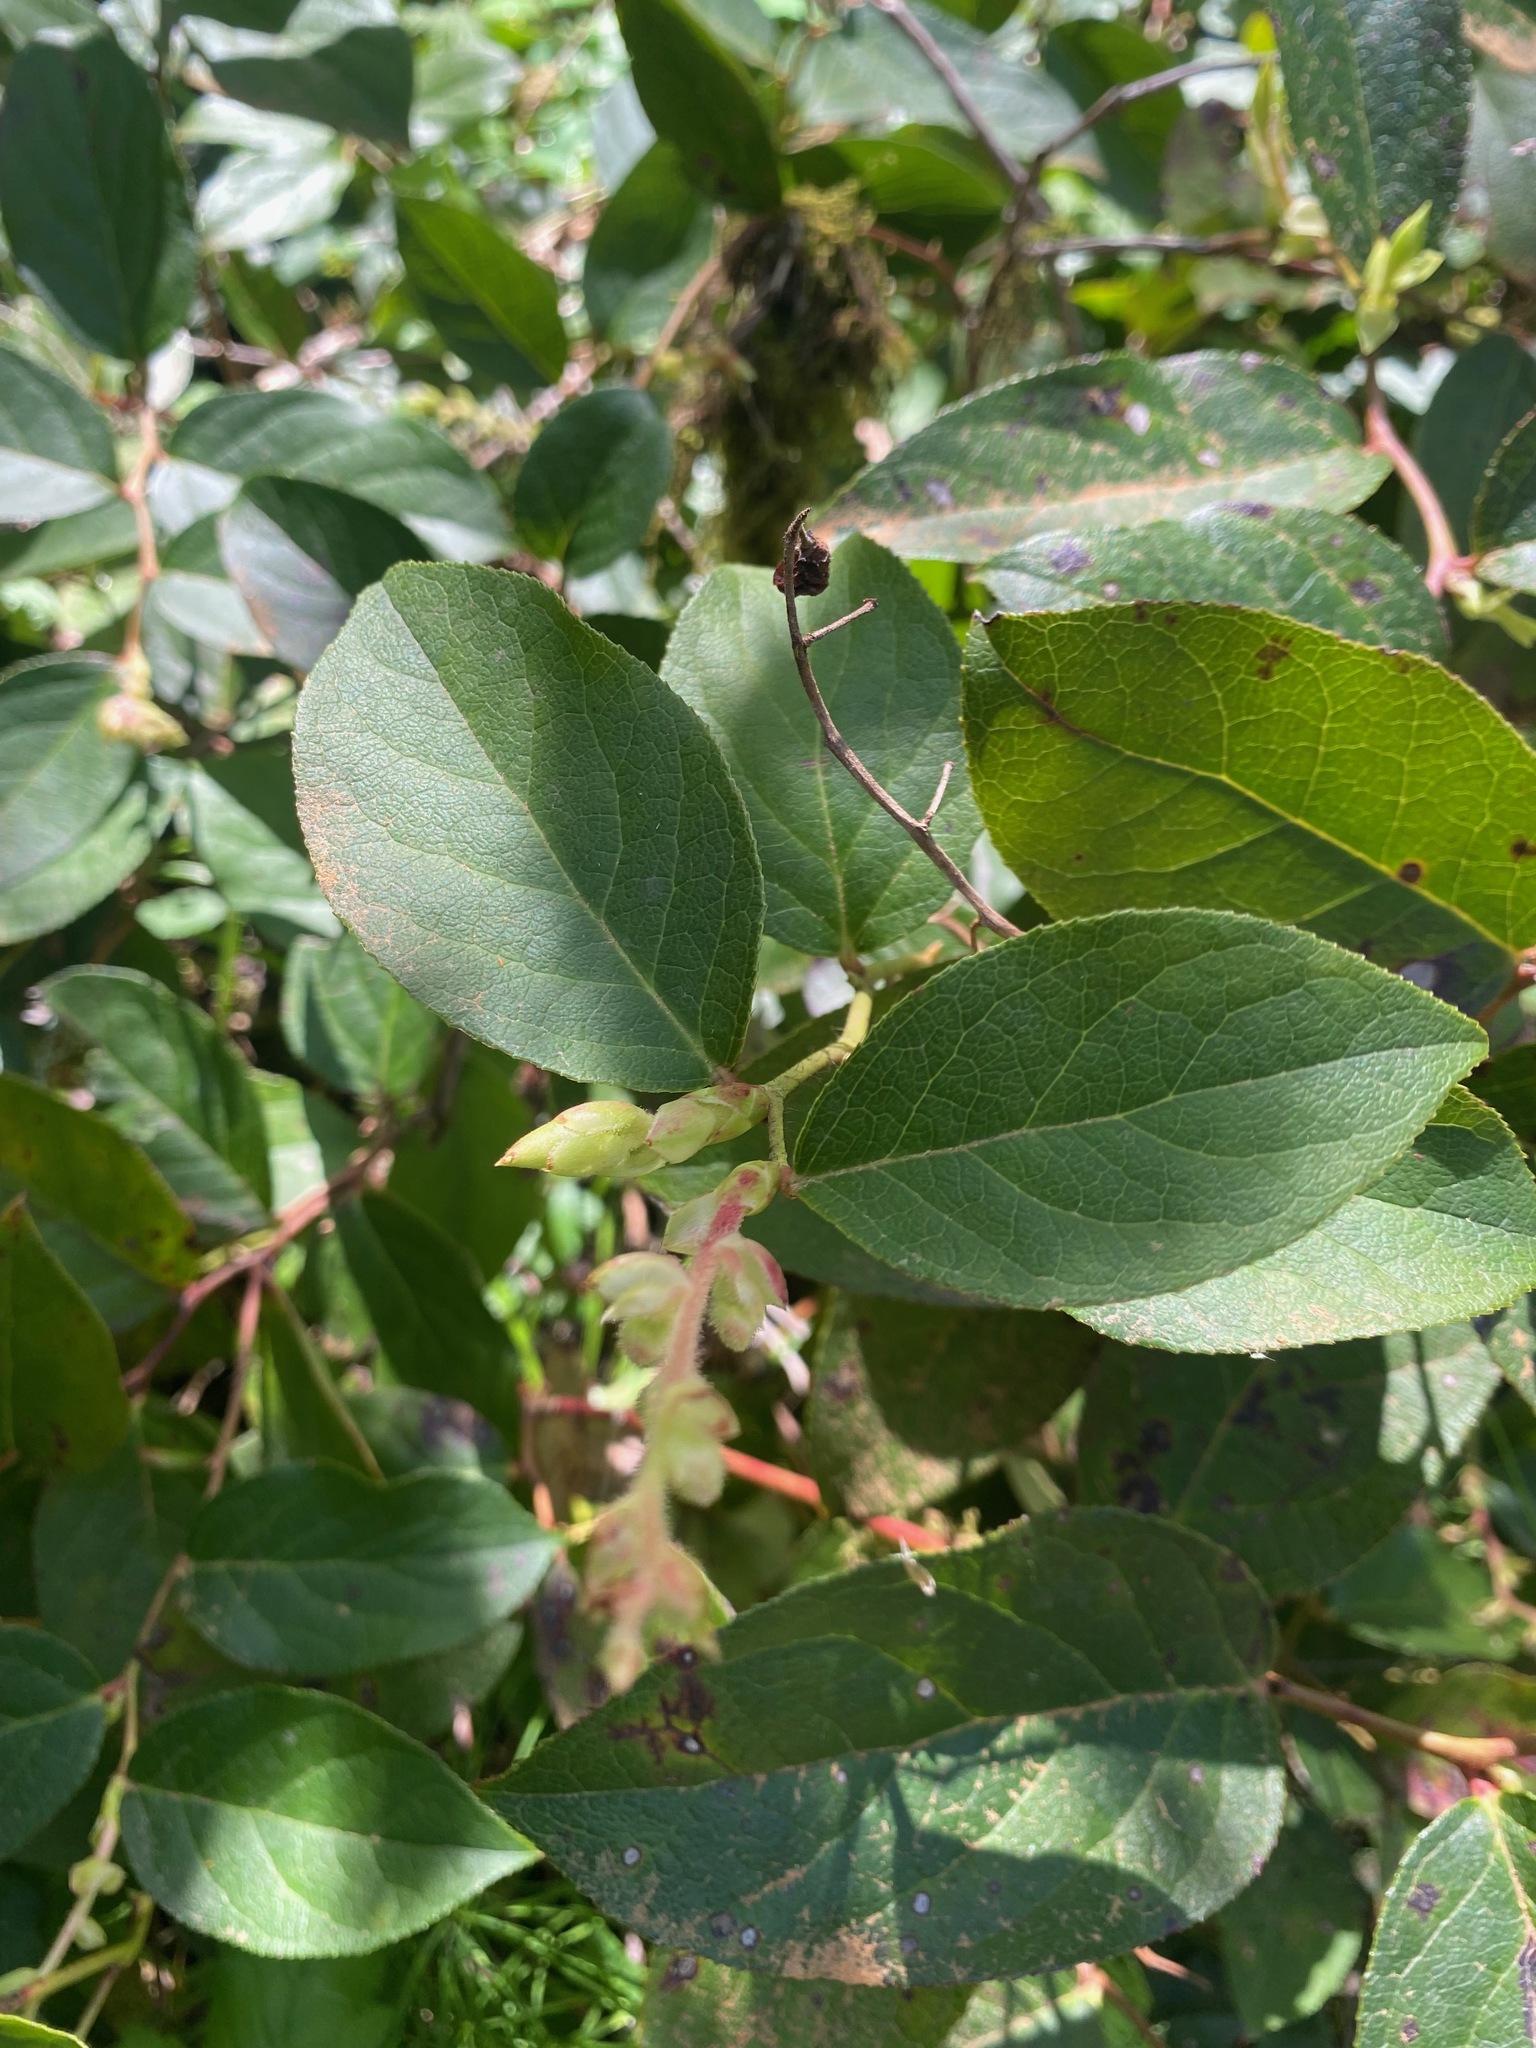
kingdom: Plantae
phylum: Tracheophyta
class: Magnoliopsida
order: Ericales
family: Ericaceae
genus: Gaultheria
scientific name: Gaultheria shallon
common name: Shallon
